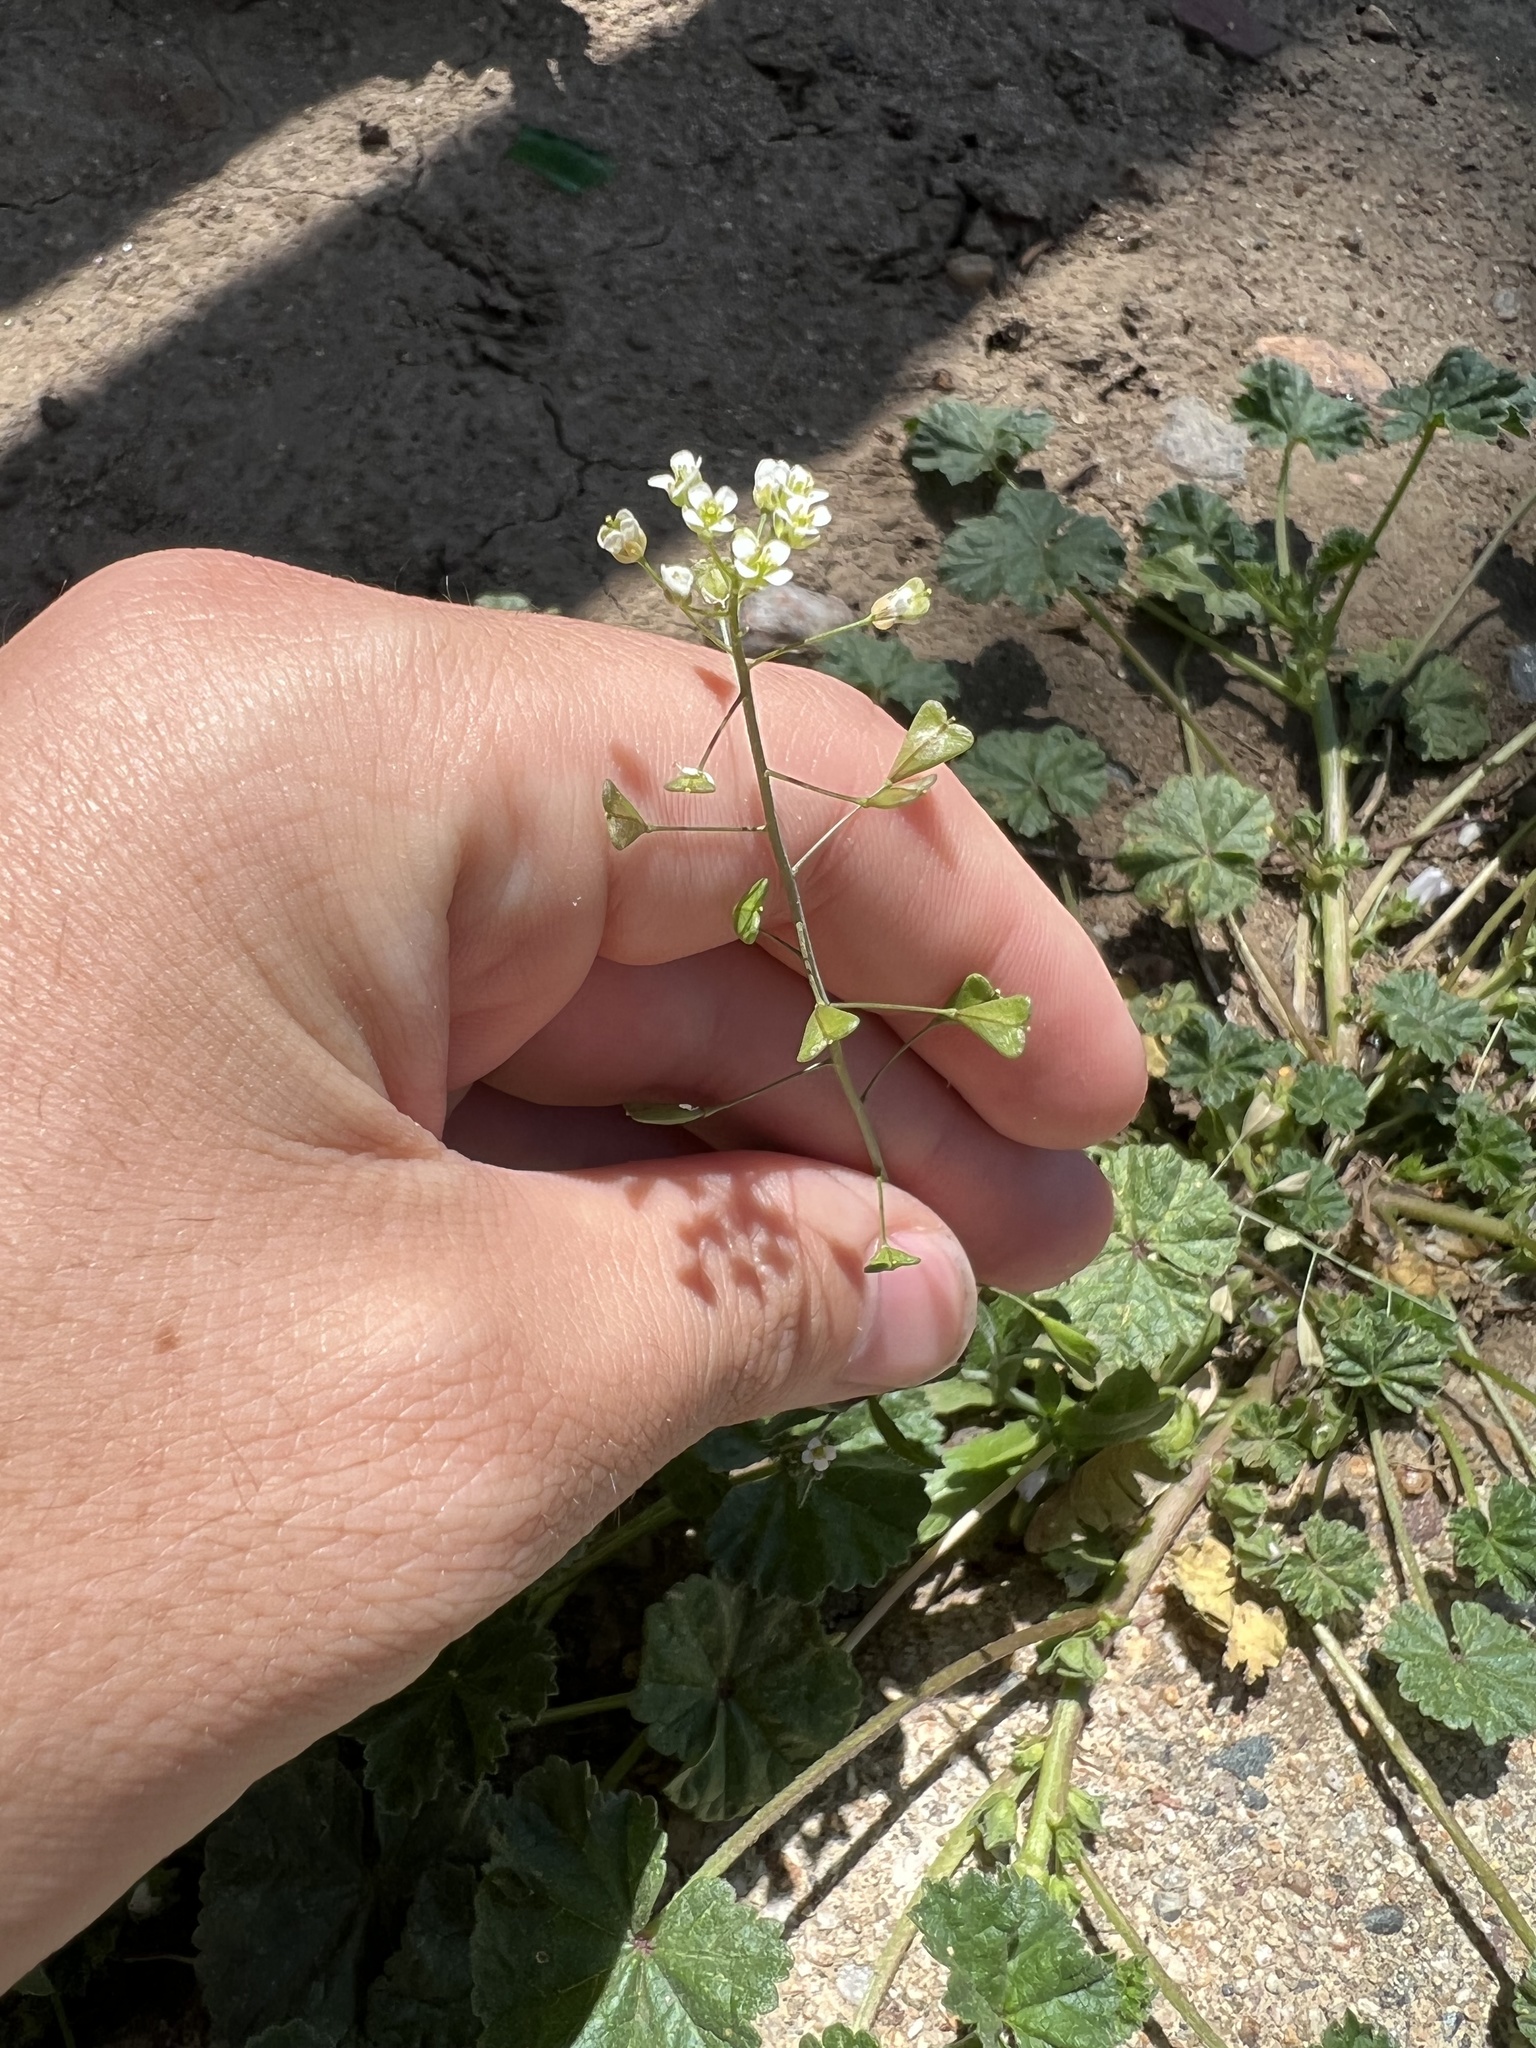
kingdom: Plantae
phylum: Tracheophyta
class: Magnoliopsida
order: Brassicales
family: Brassicaceae
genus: Capsella
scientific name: Capsella bursa-pastoris
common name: Shepherd's purse
